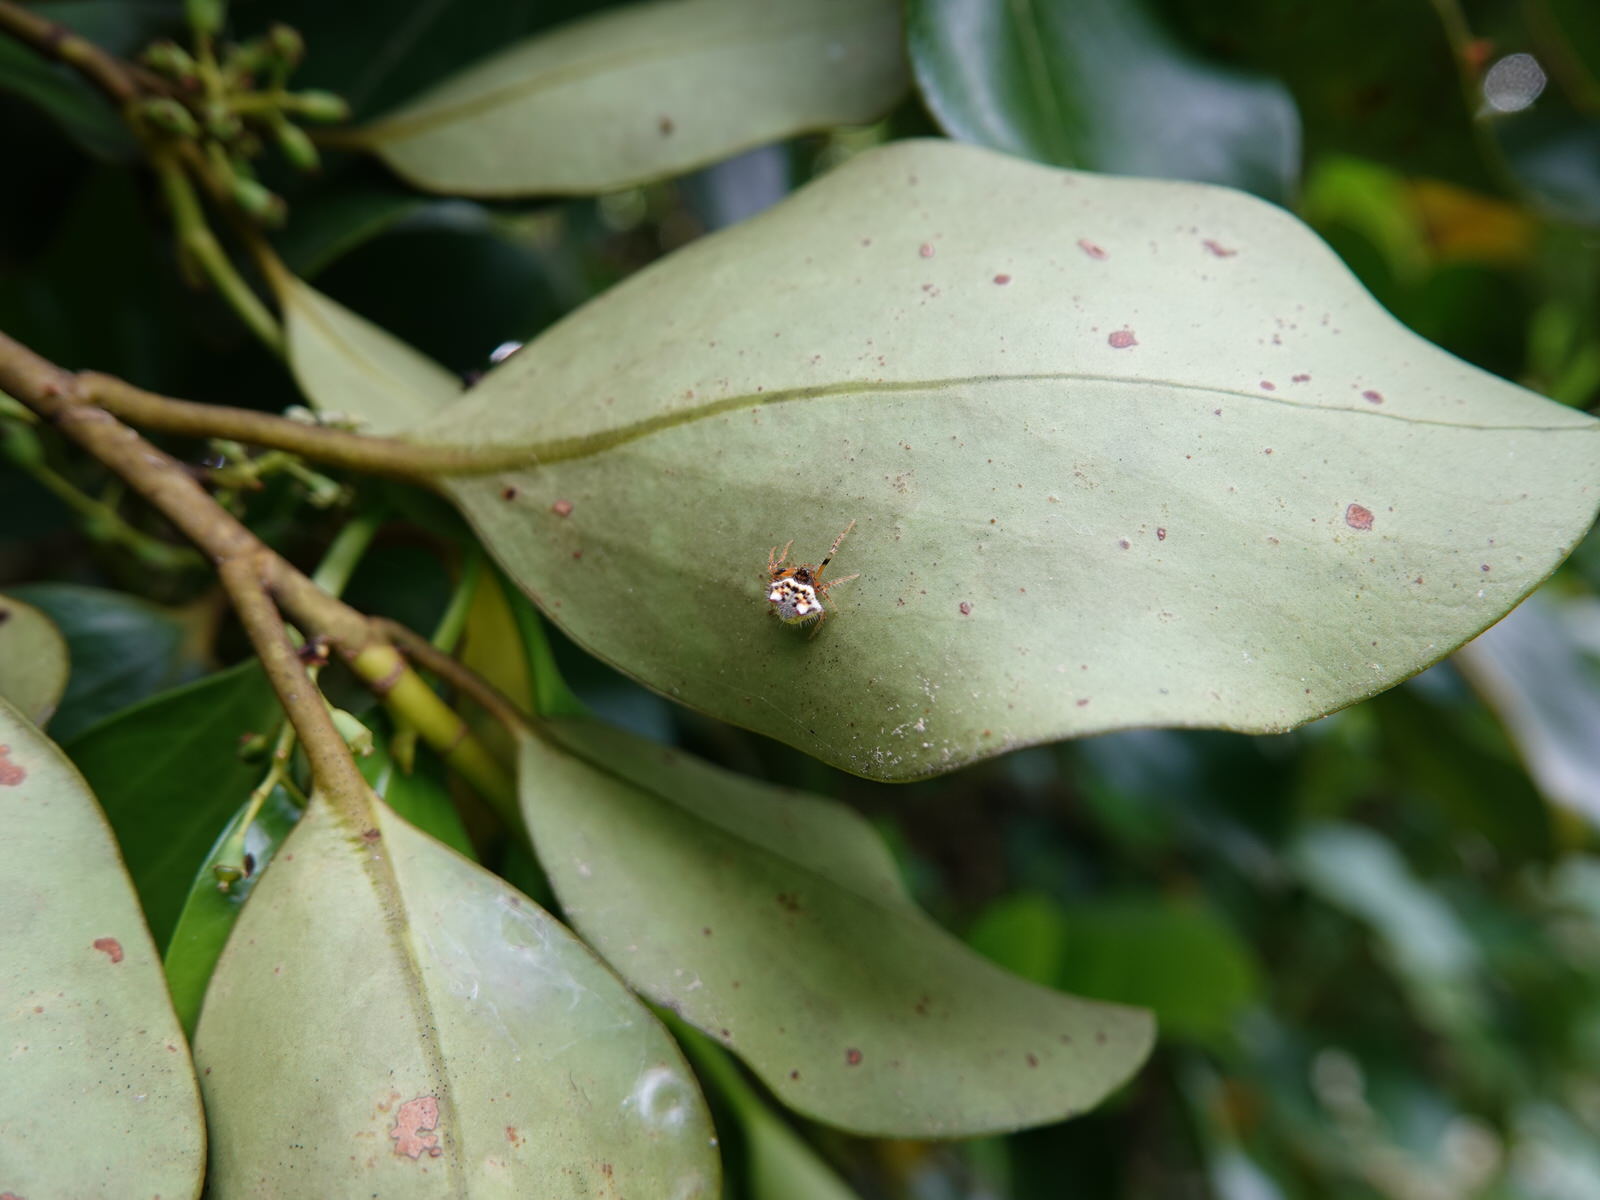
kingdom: Animalia
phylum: Arthropoda
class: Arachnida
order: Araneae
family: Araneidae
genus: Poecilopachys
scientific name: Poecilopachys australasia
